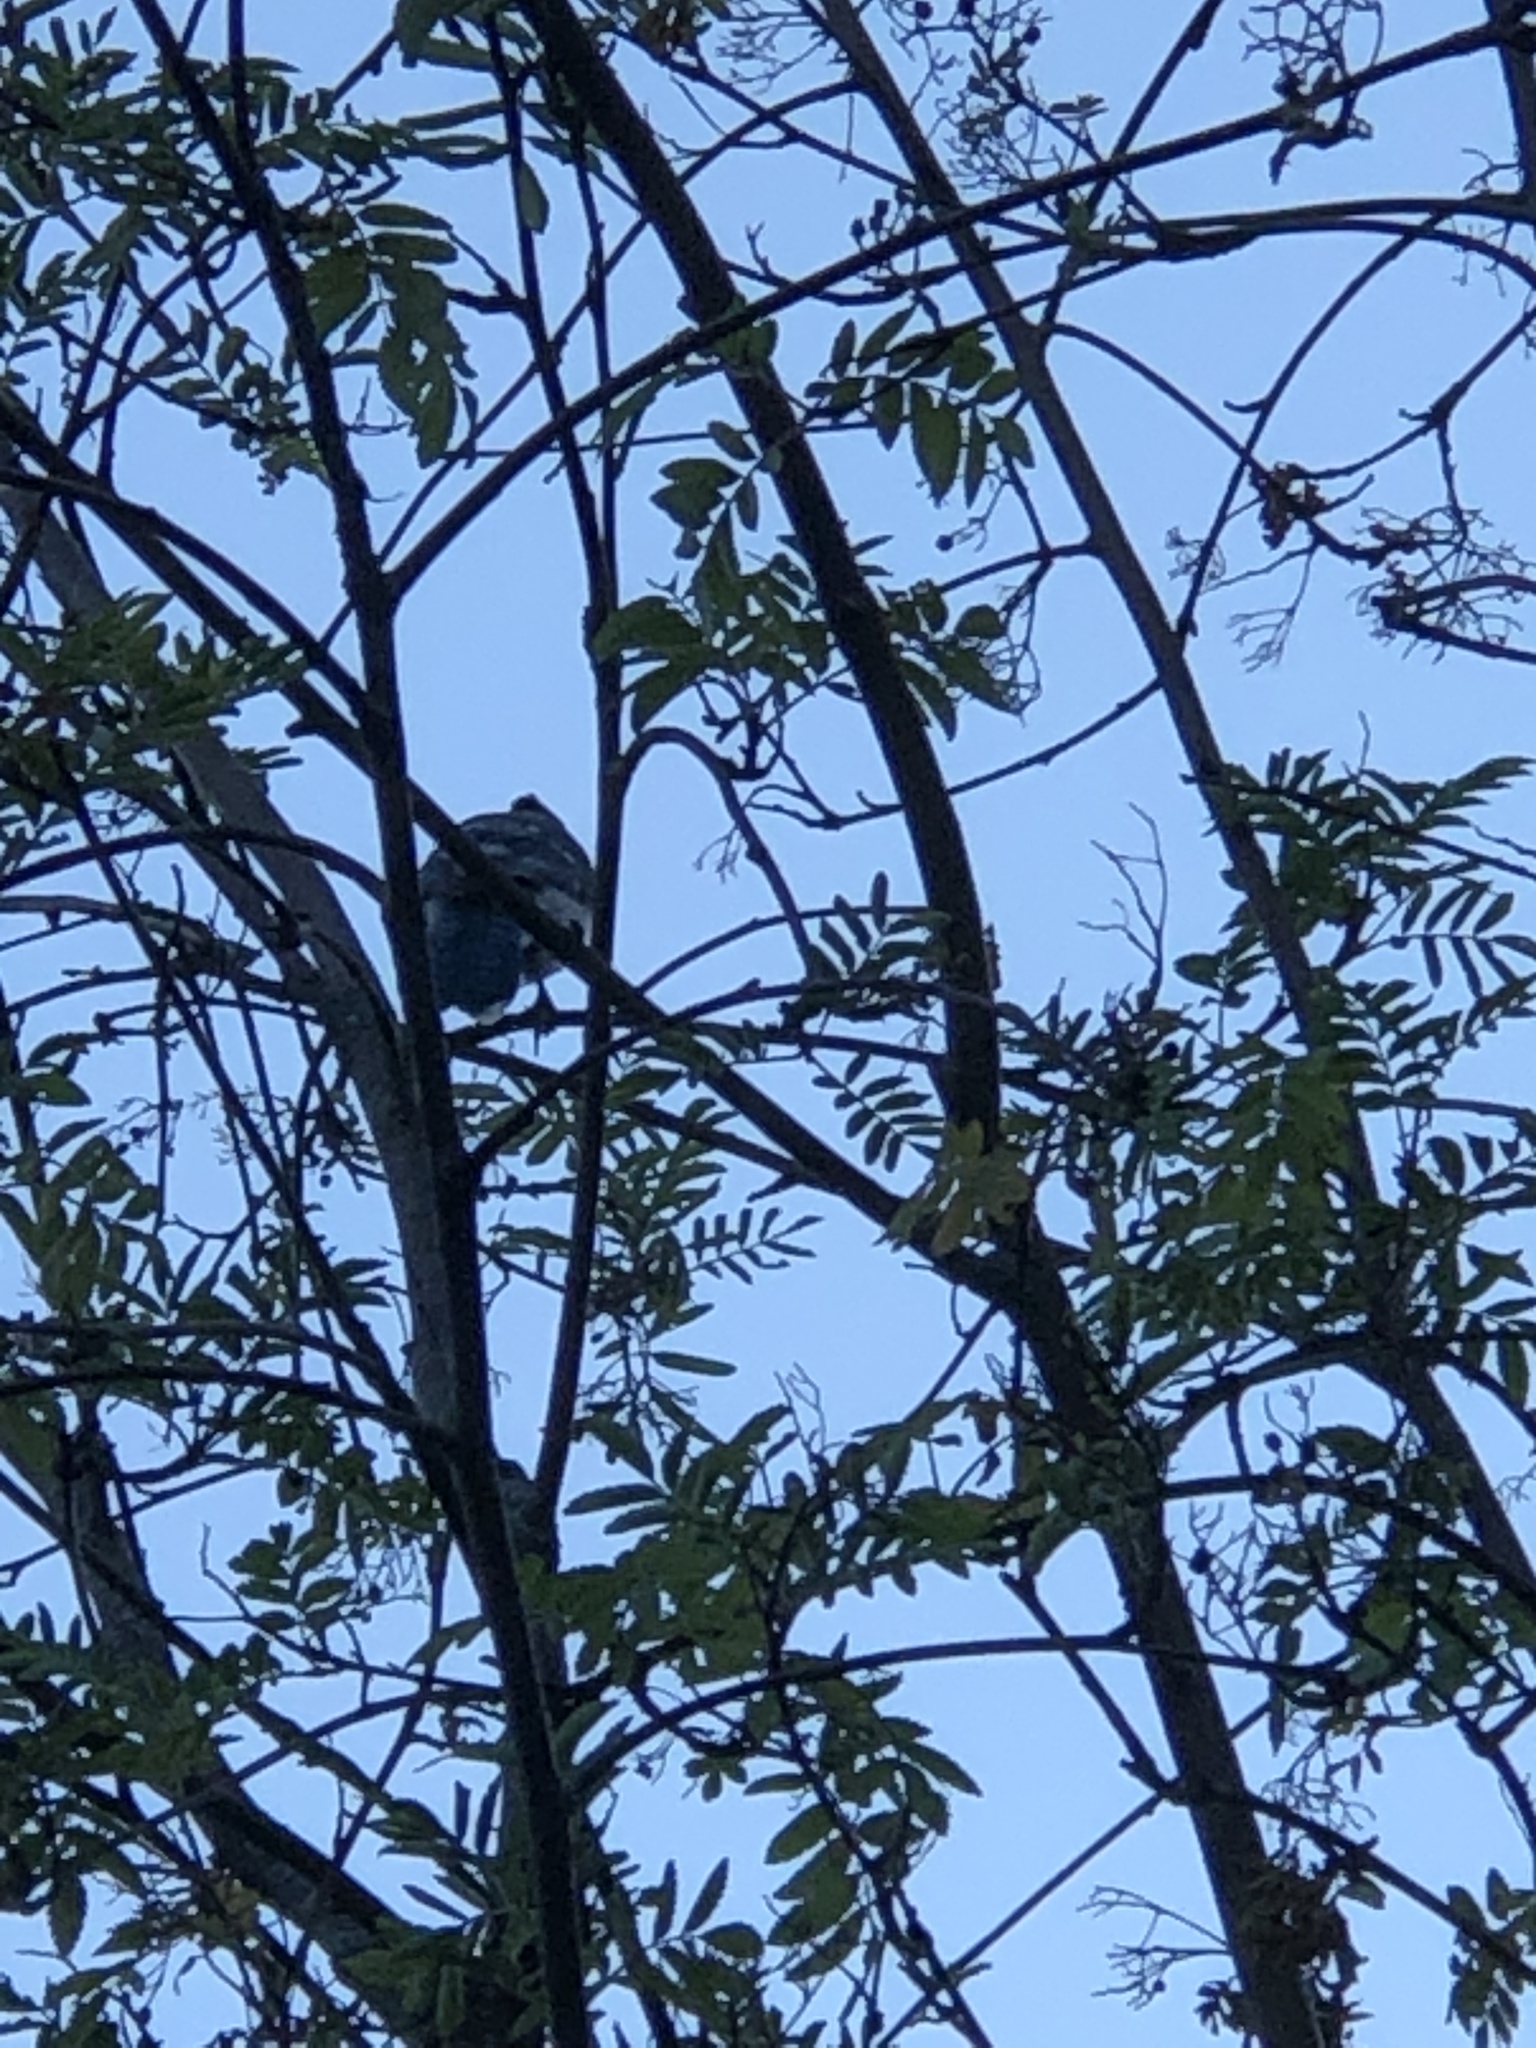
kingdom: Animalia
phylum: Chordata
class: Aves
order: Passeriformes
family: Corvidae
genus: Cyanocitta
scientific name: Cyanocitta cristata
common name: Blue jay
